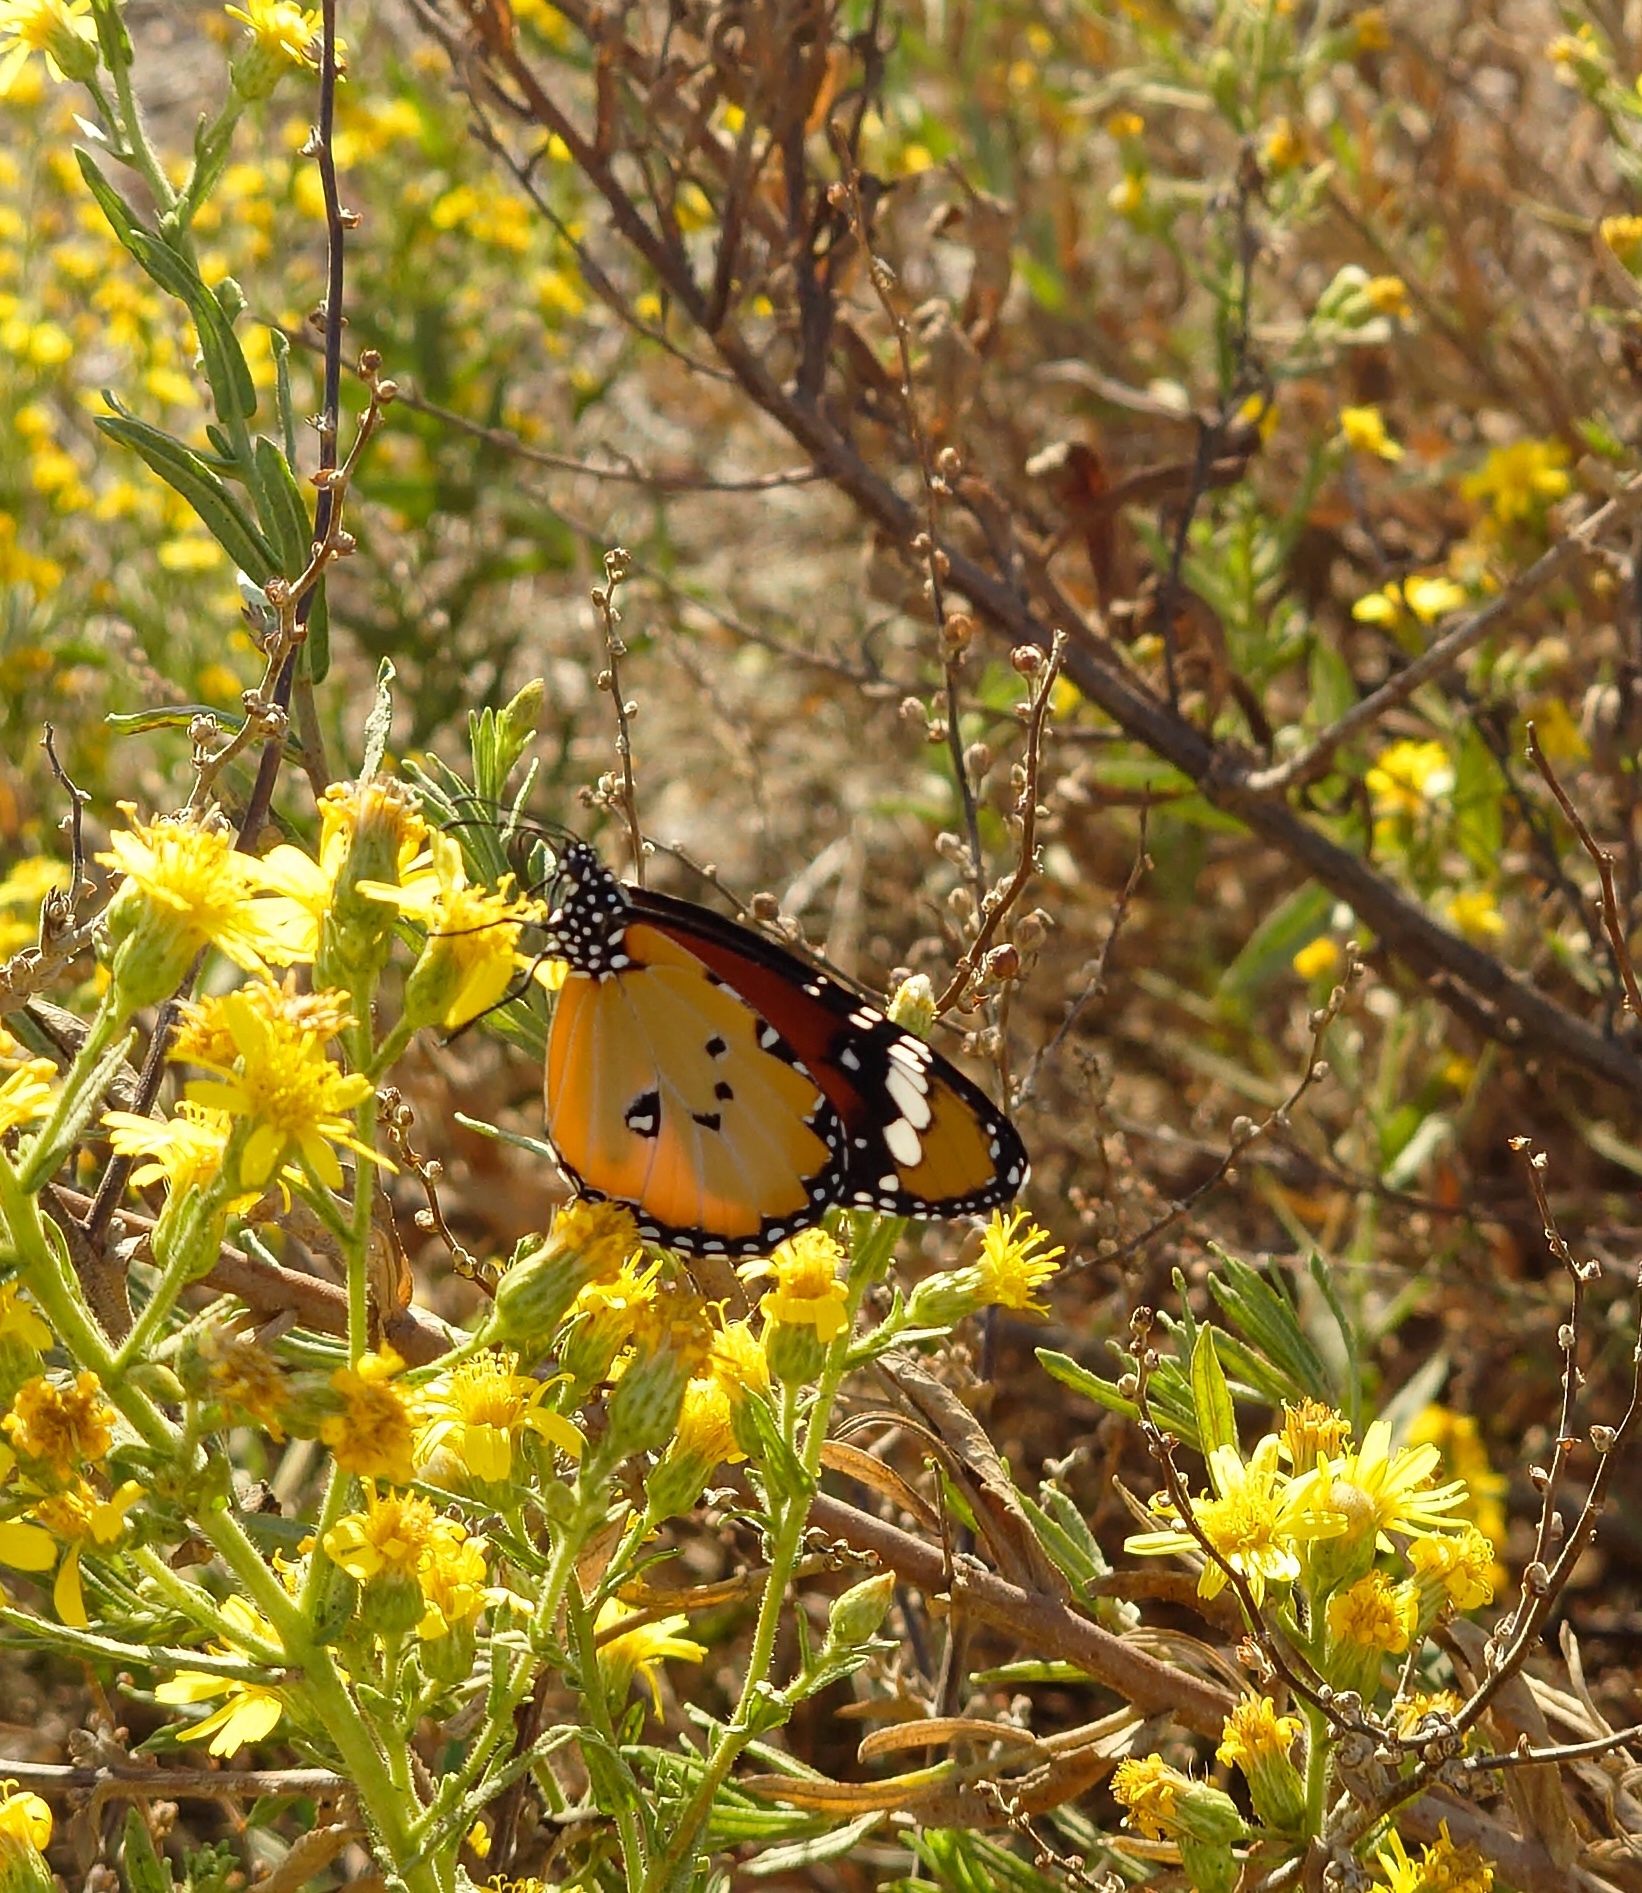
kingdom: Animalia
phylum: Arthropoda
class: Insecta
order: Lepidoptera
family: Nymphalidae
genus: Danaus
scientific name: Danaus chrysippus
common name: Plain tiger
